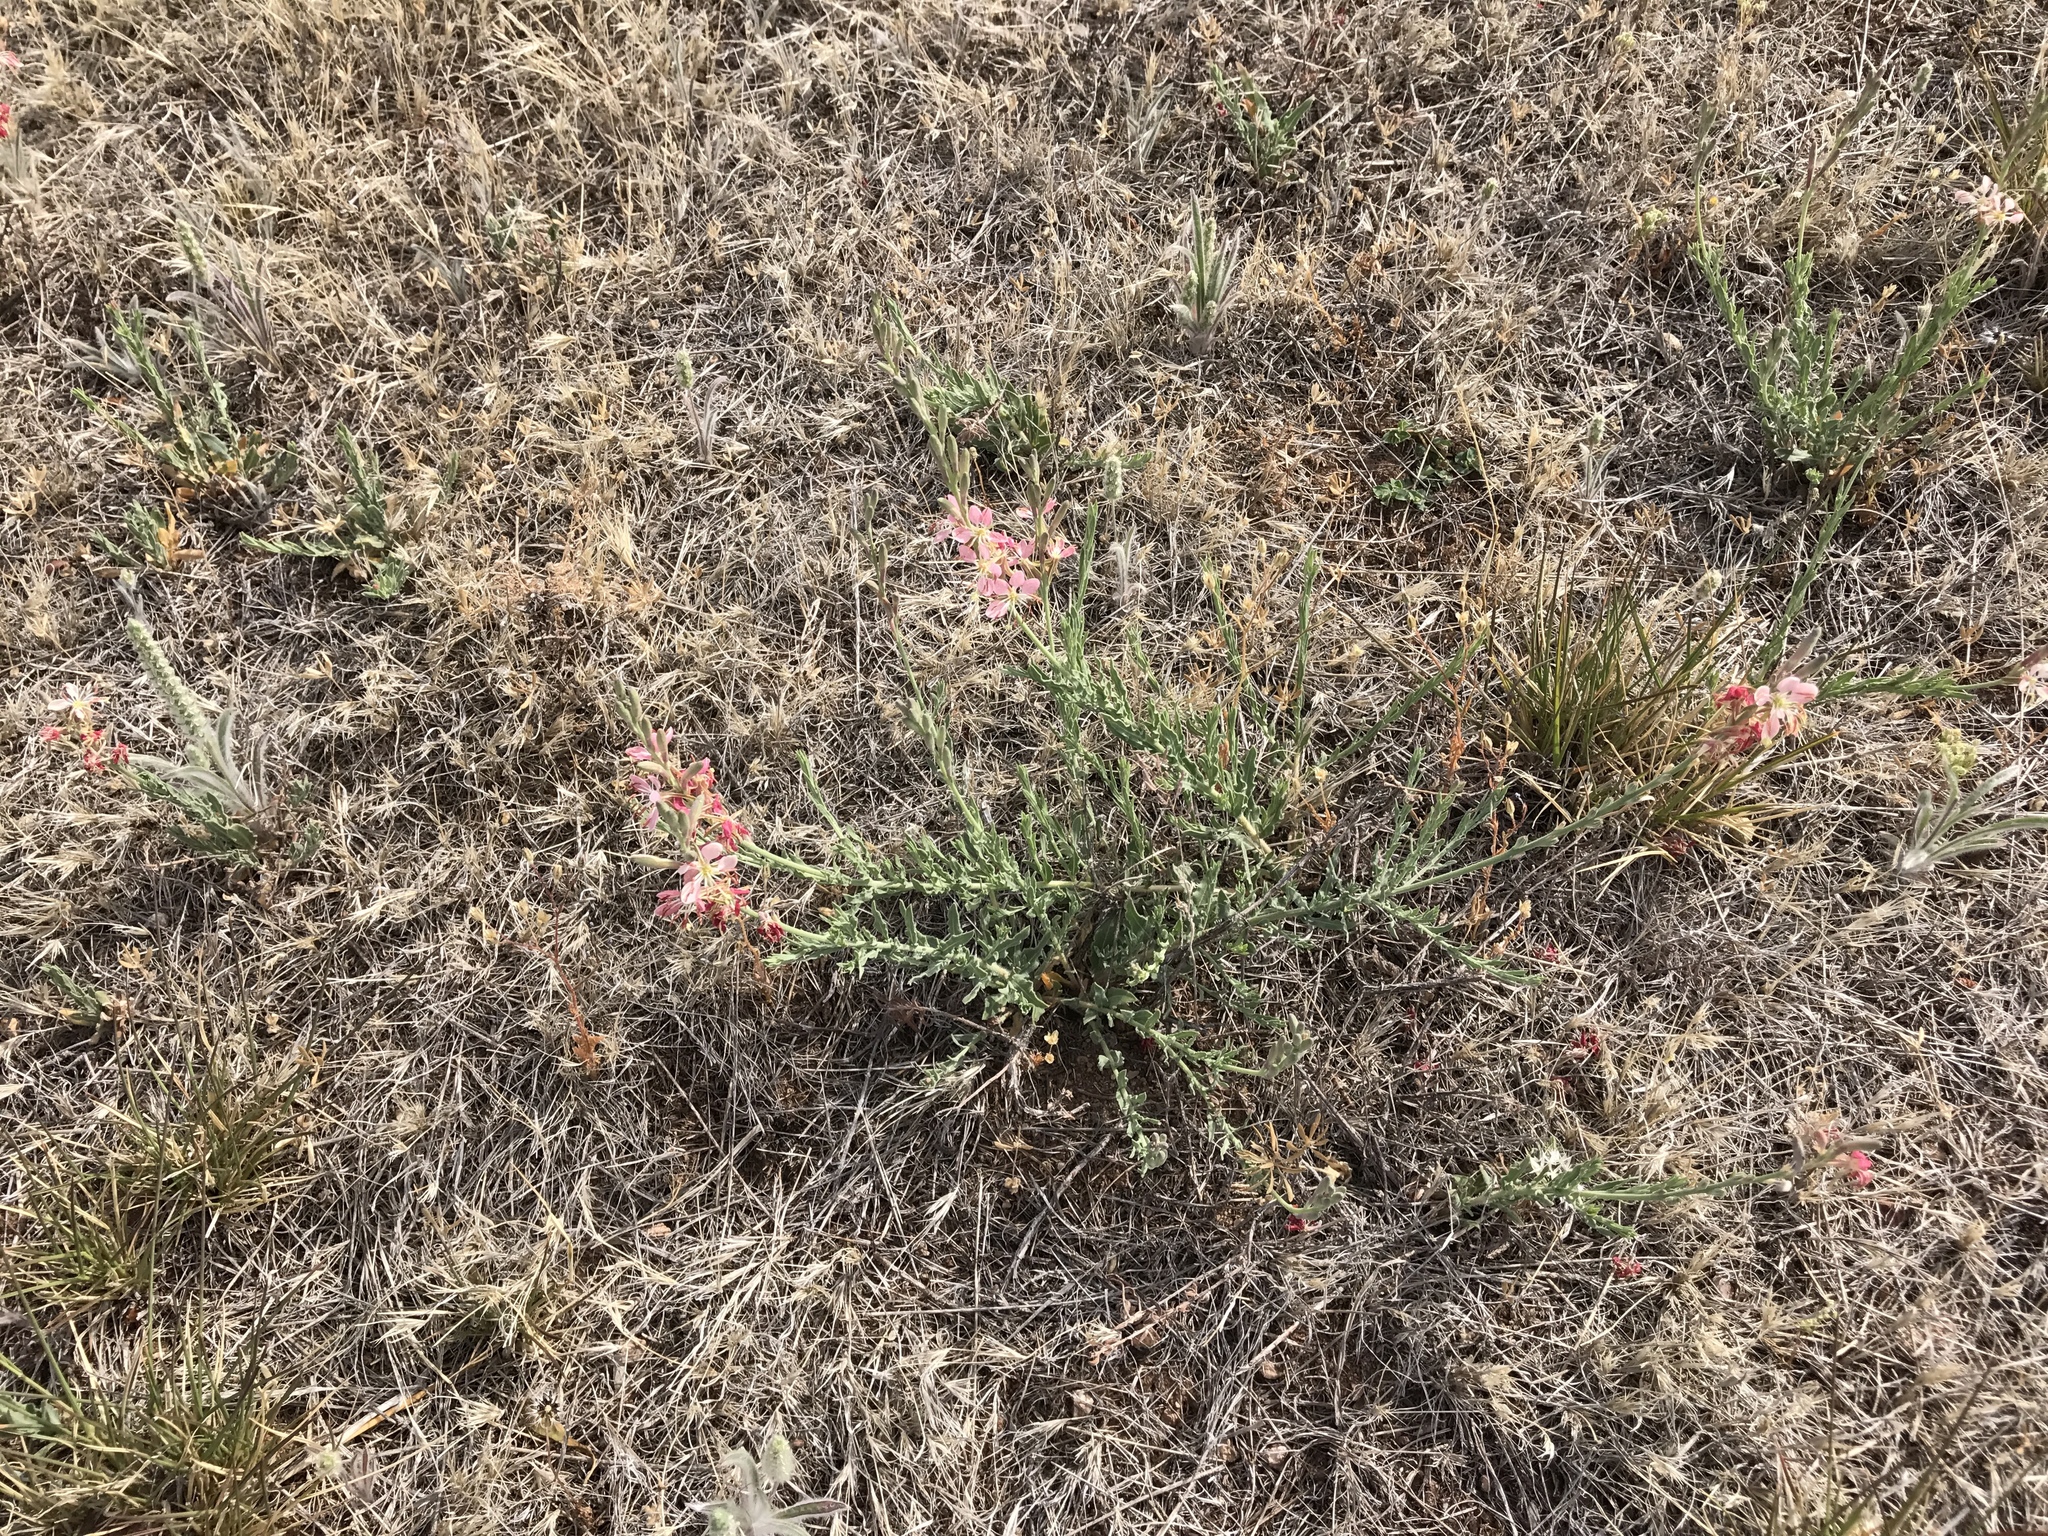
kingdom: Plantae
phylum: Tracheophyta
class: Magnoliopsida
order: Myrtales
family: Onagraceae
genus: Oenothera
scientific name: Oenothera suffrutescens
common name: Scarlet beeblossom
